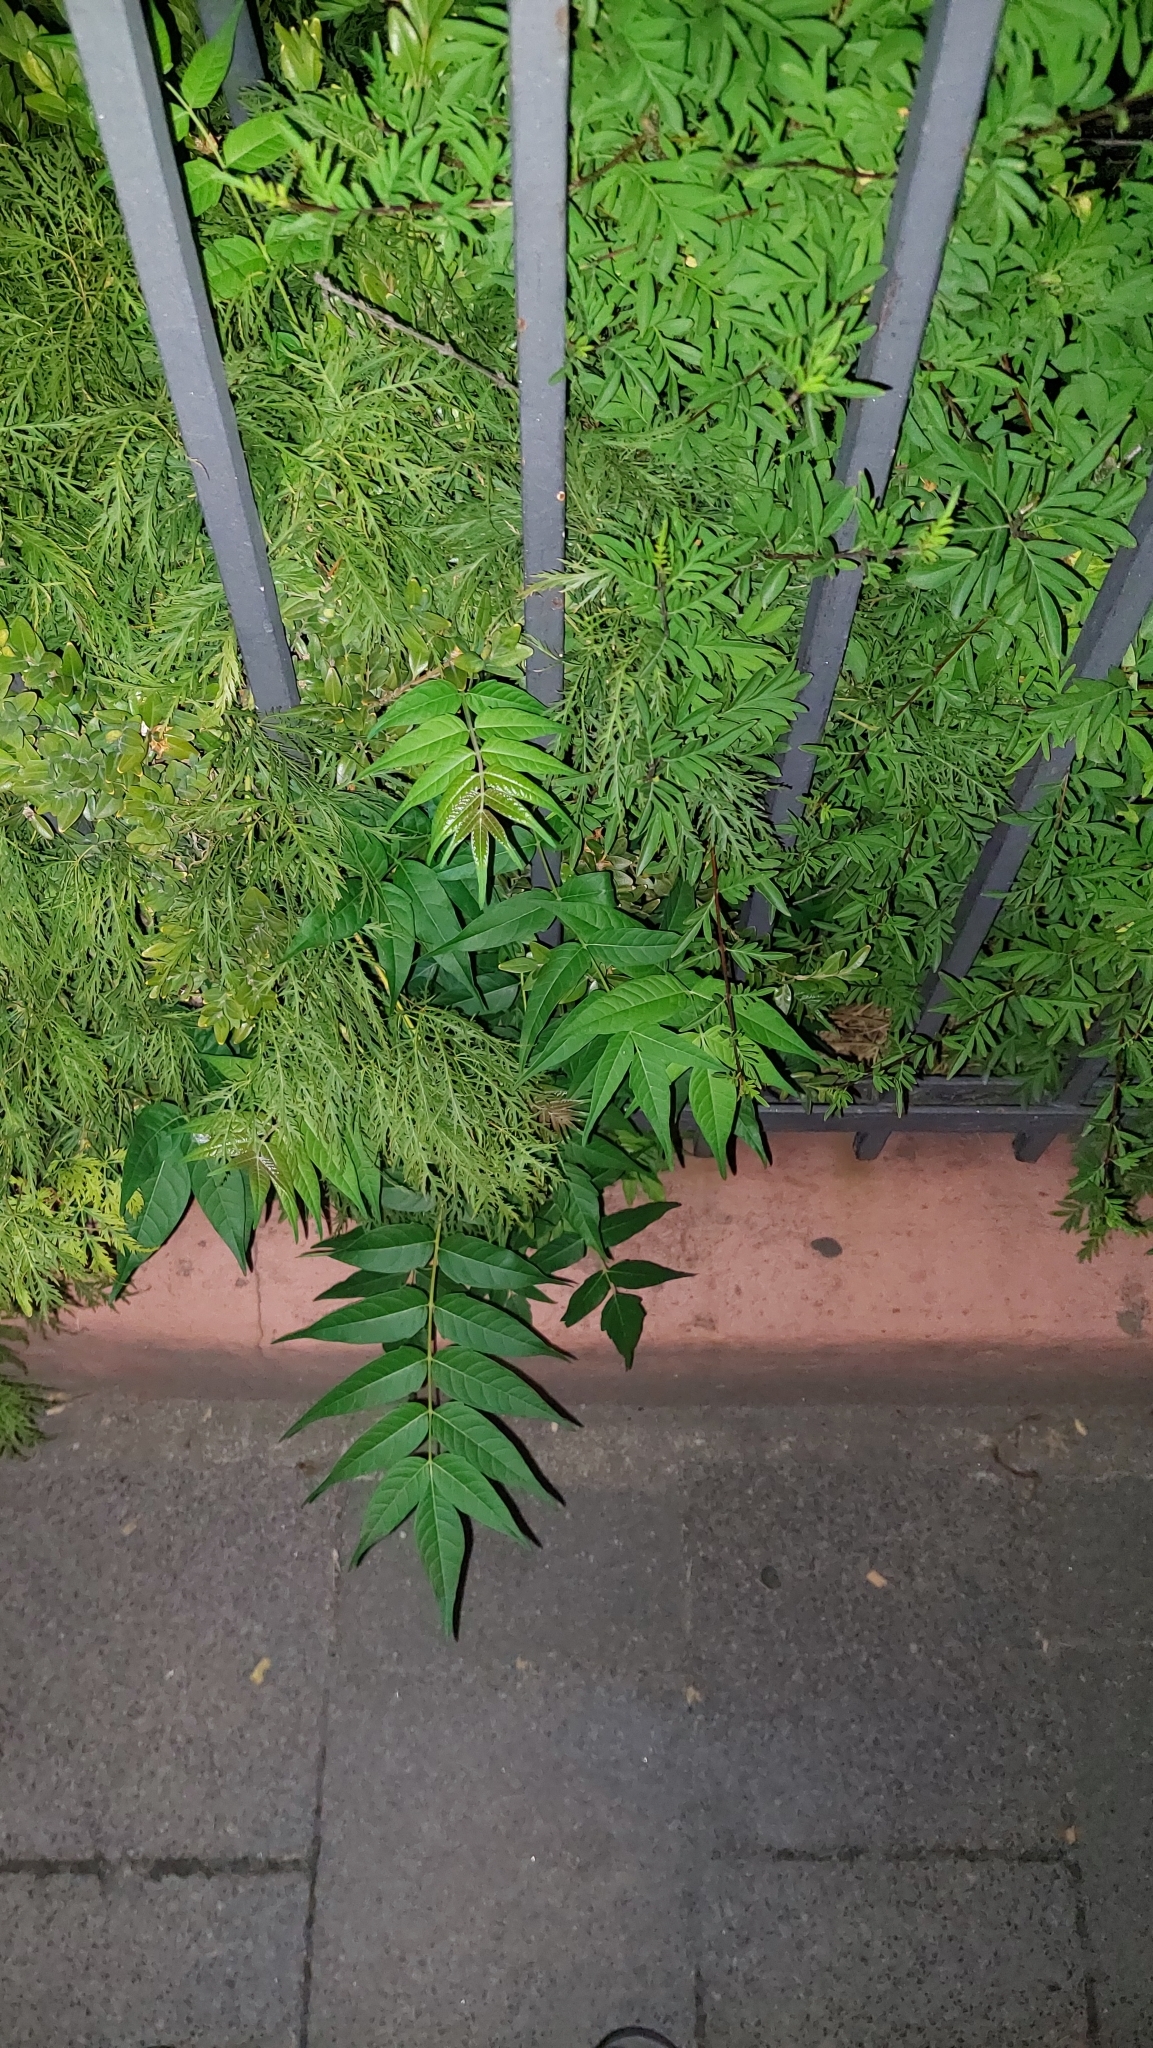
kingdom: Plantae
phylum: Tracheophyta
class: Magnoliopsida
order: Sapindales
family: Simaroubaceae
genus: Ailanthus
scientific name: Ailanthus altissima
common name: Tree-of-heaven
